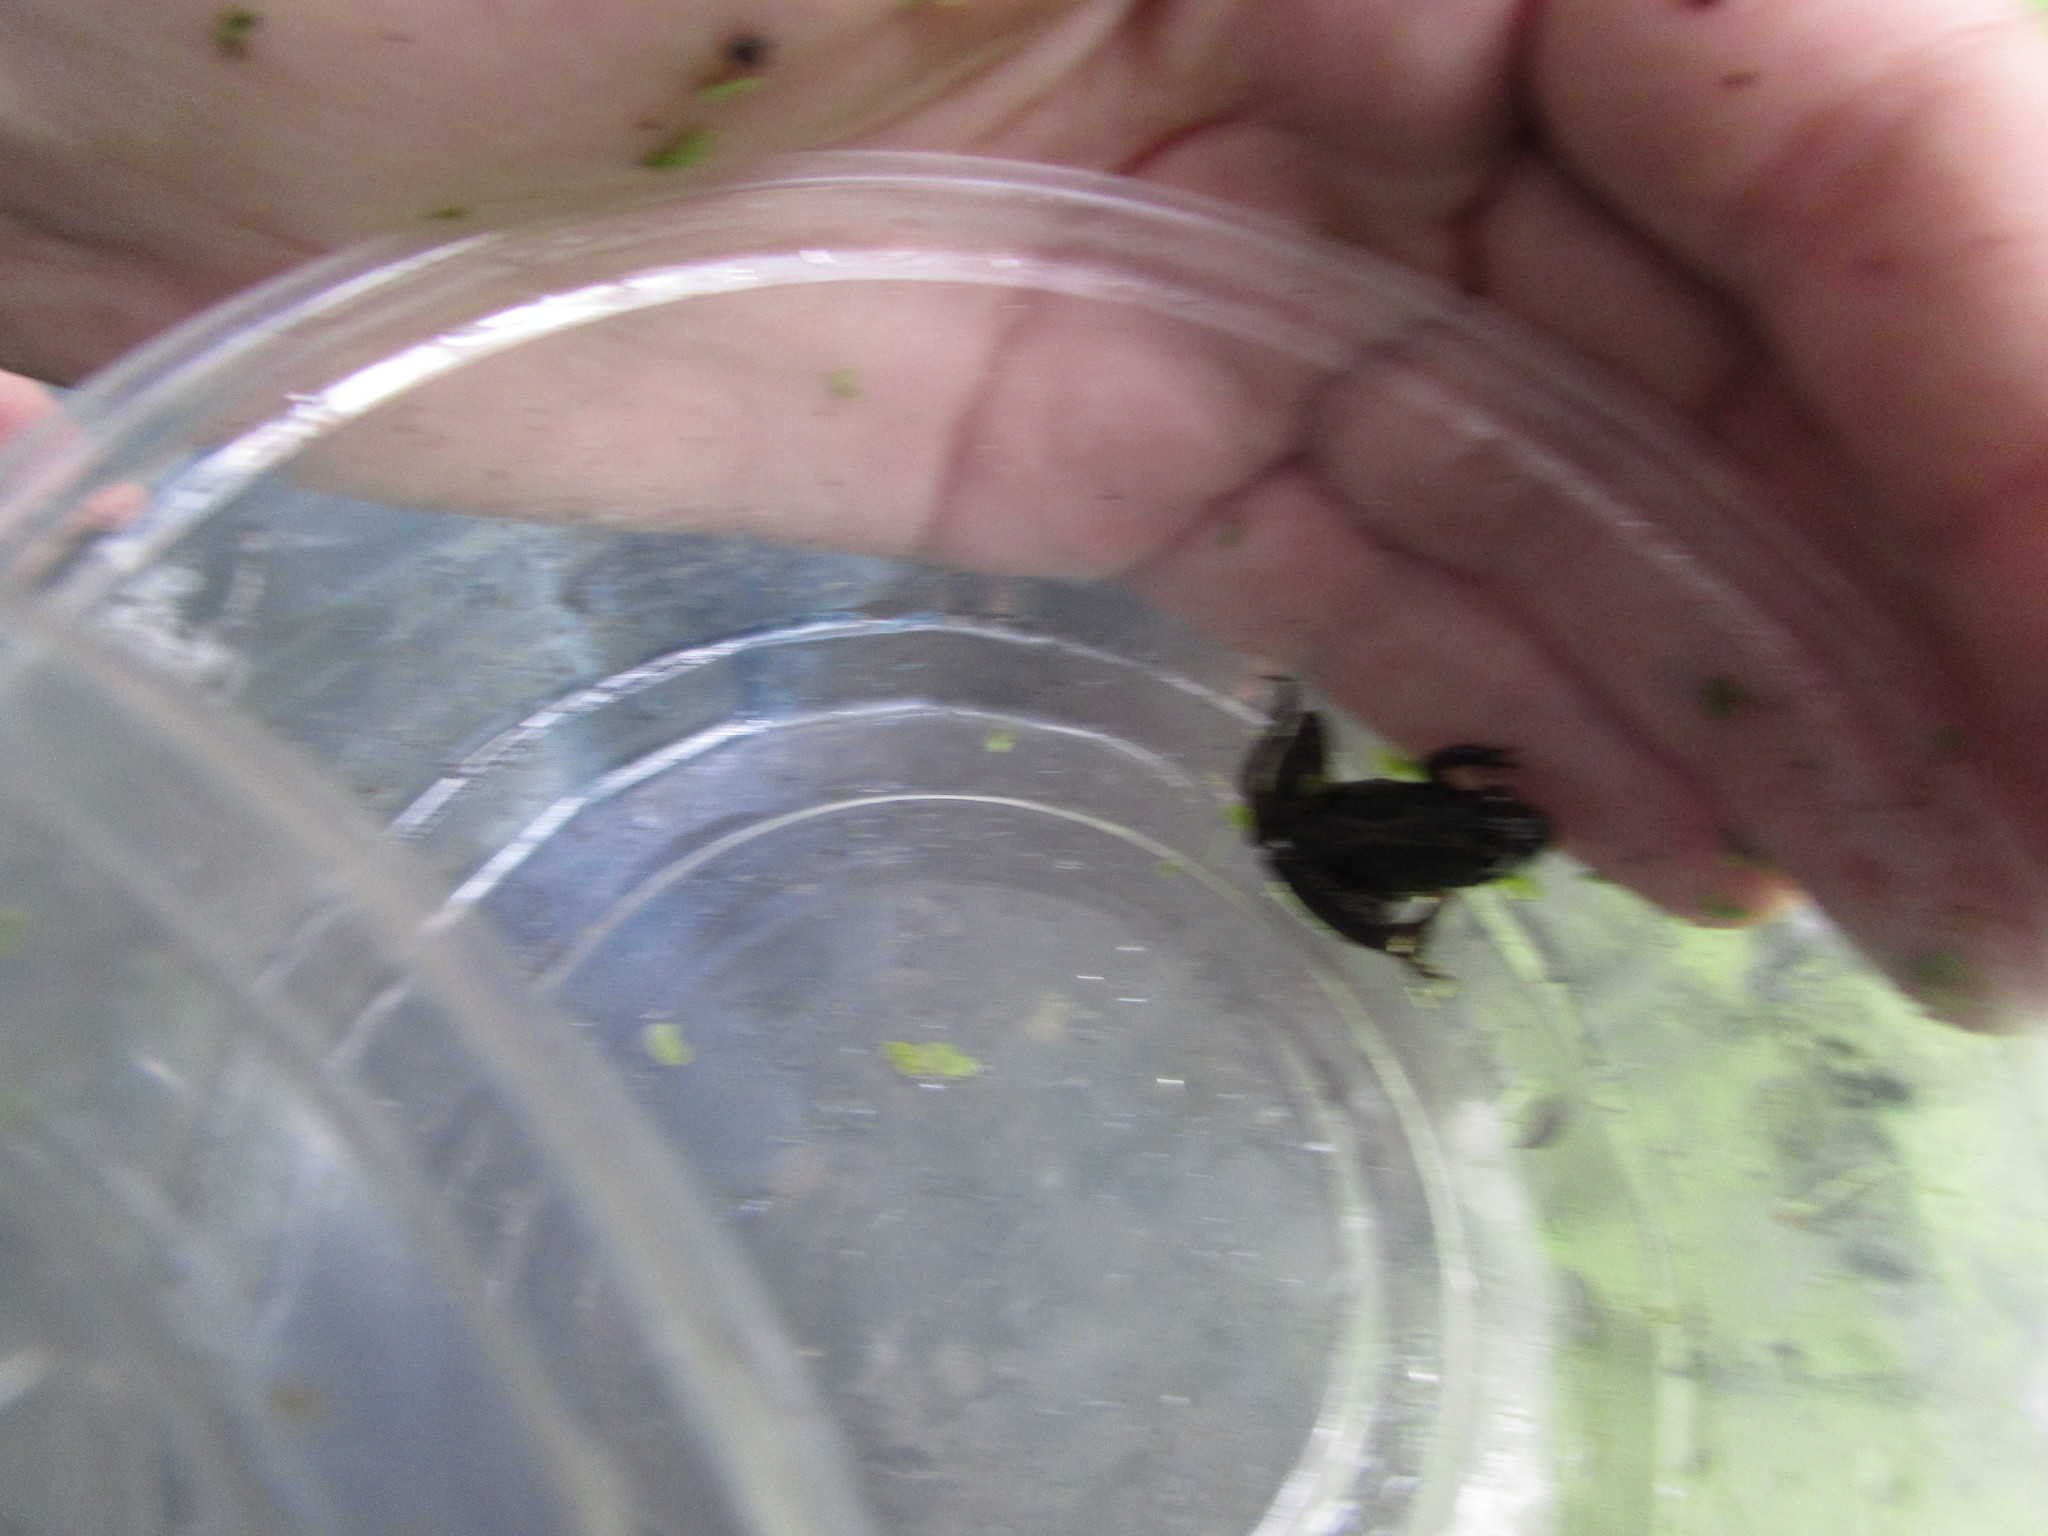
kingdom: Animalia
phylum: Chordata
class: Amphibia
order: Anura
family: Hylidae
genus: Acris
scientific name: Acris crepitans
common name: Northern cricket frog
